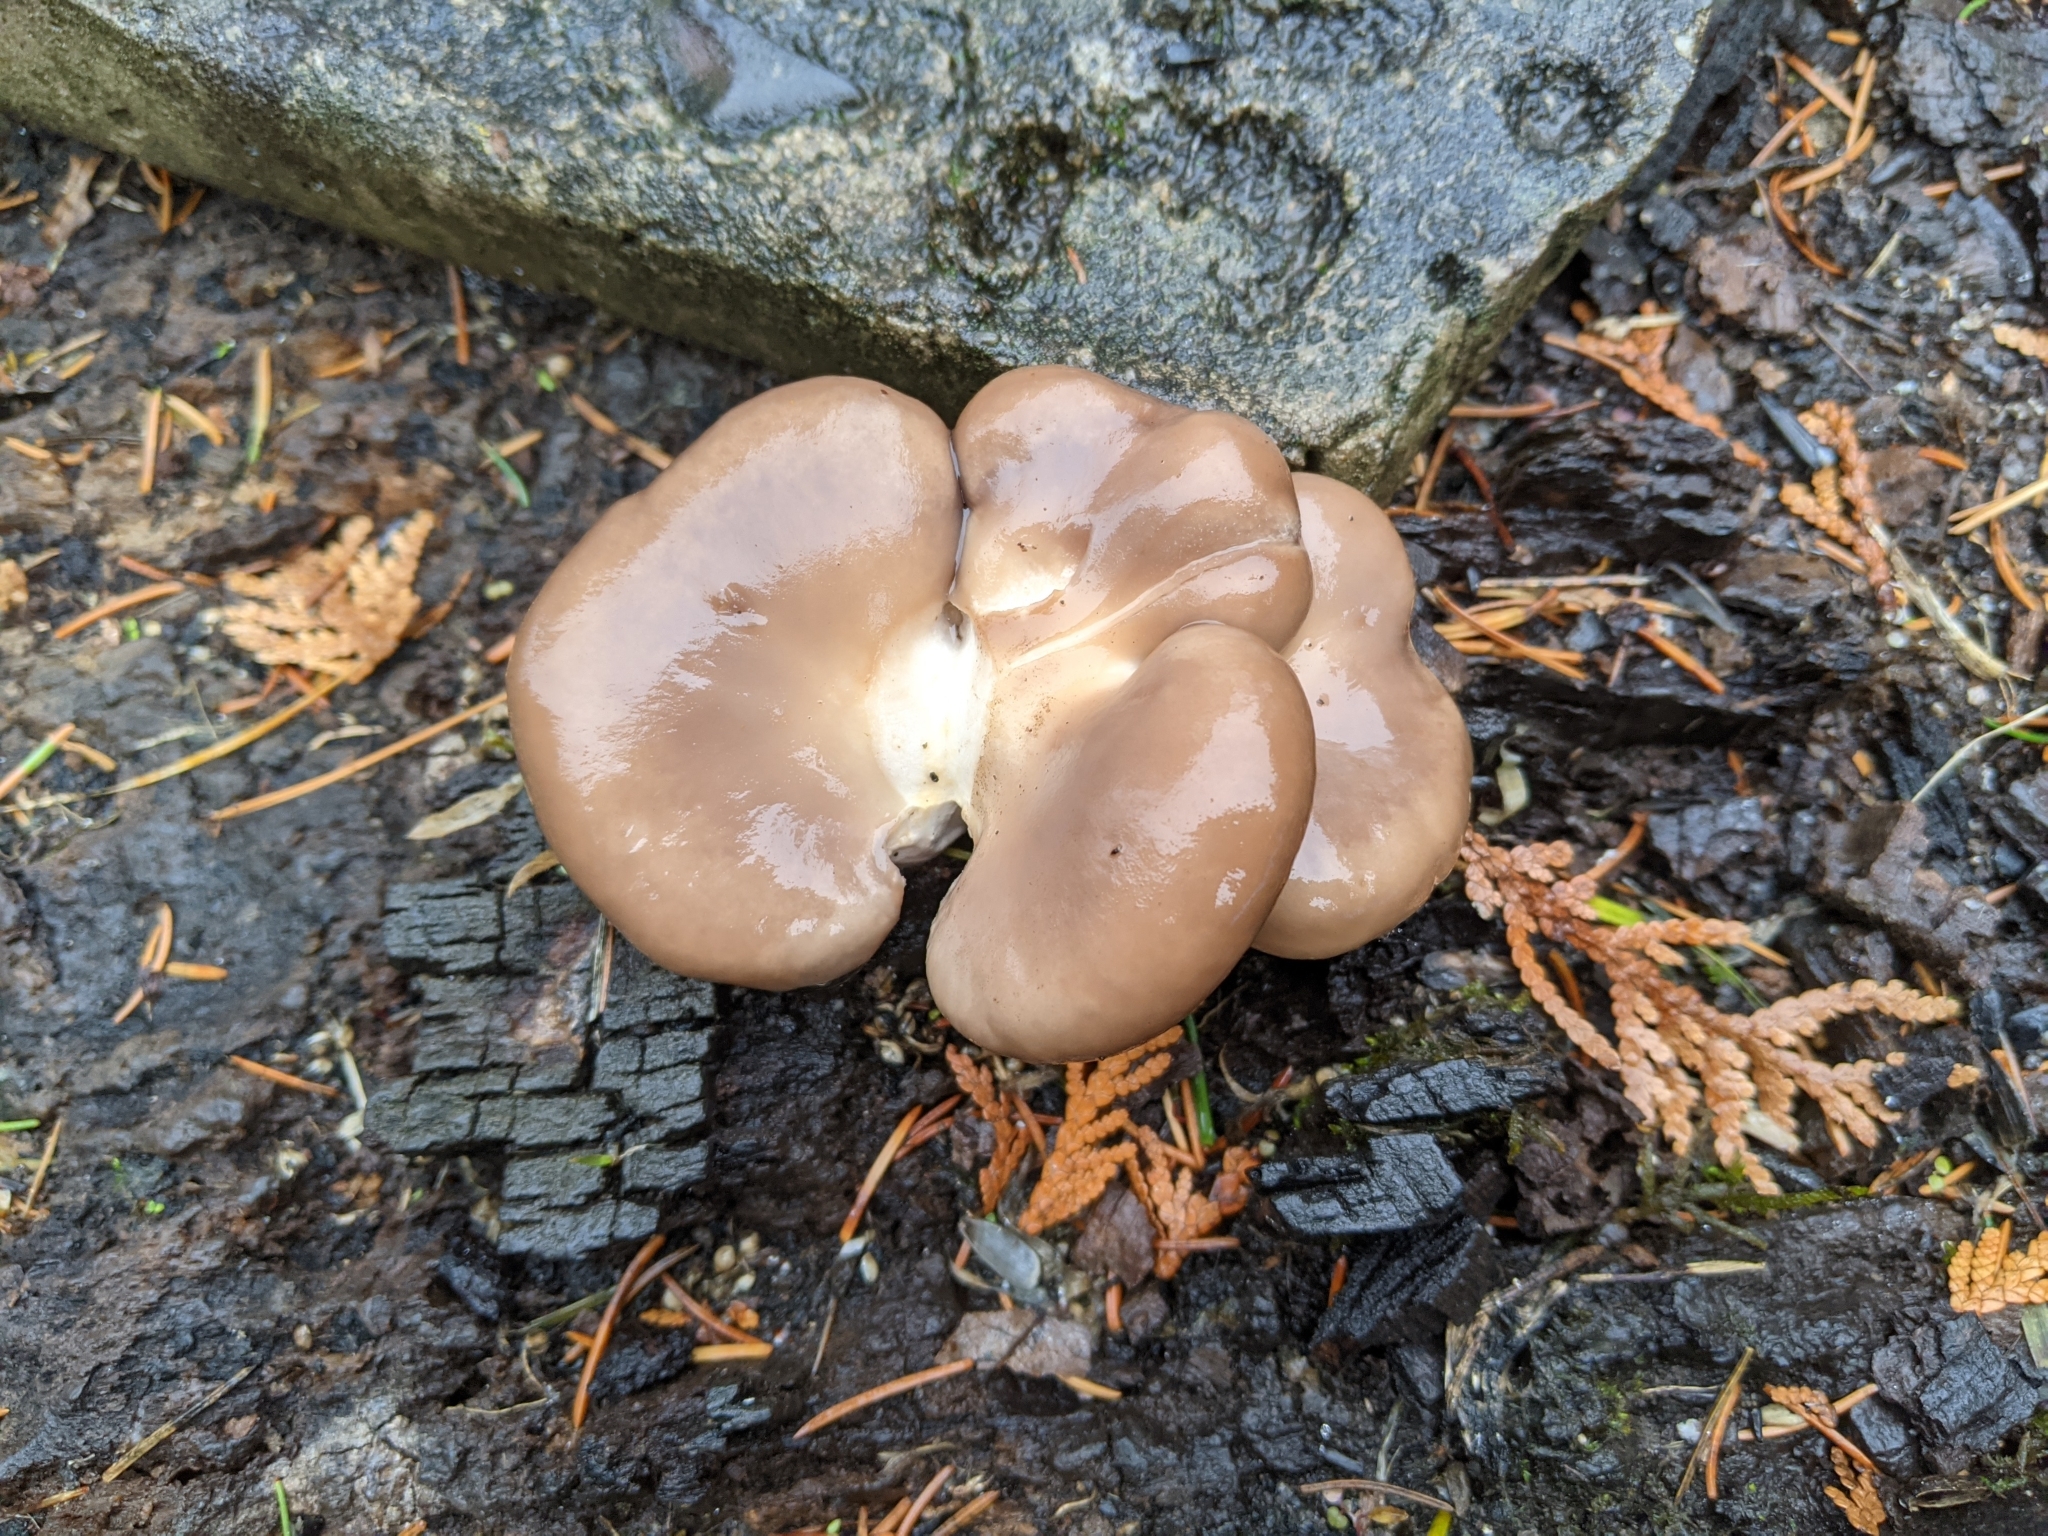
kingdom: Fungi
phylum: Basidiomycota
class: Agaricomycetes
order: Agaricales
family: Pleurotaceae
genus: Pleurotus
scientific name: Pleurotus ostreatus
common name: Oyster mushroom
